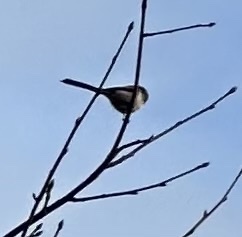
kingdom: Animalia
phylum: Chordata
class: Aves
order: Passeriformes
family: Aegithalidae
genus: Aegithalos
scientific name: Aegithalos caudatus
